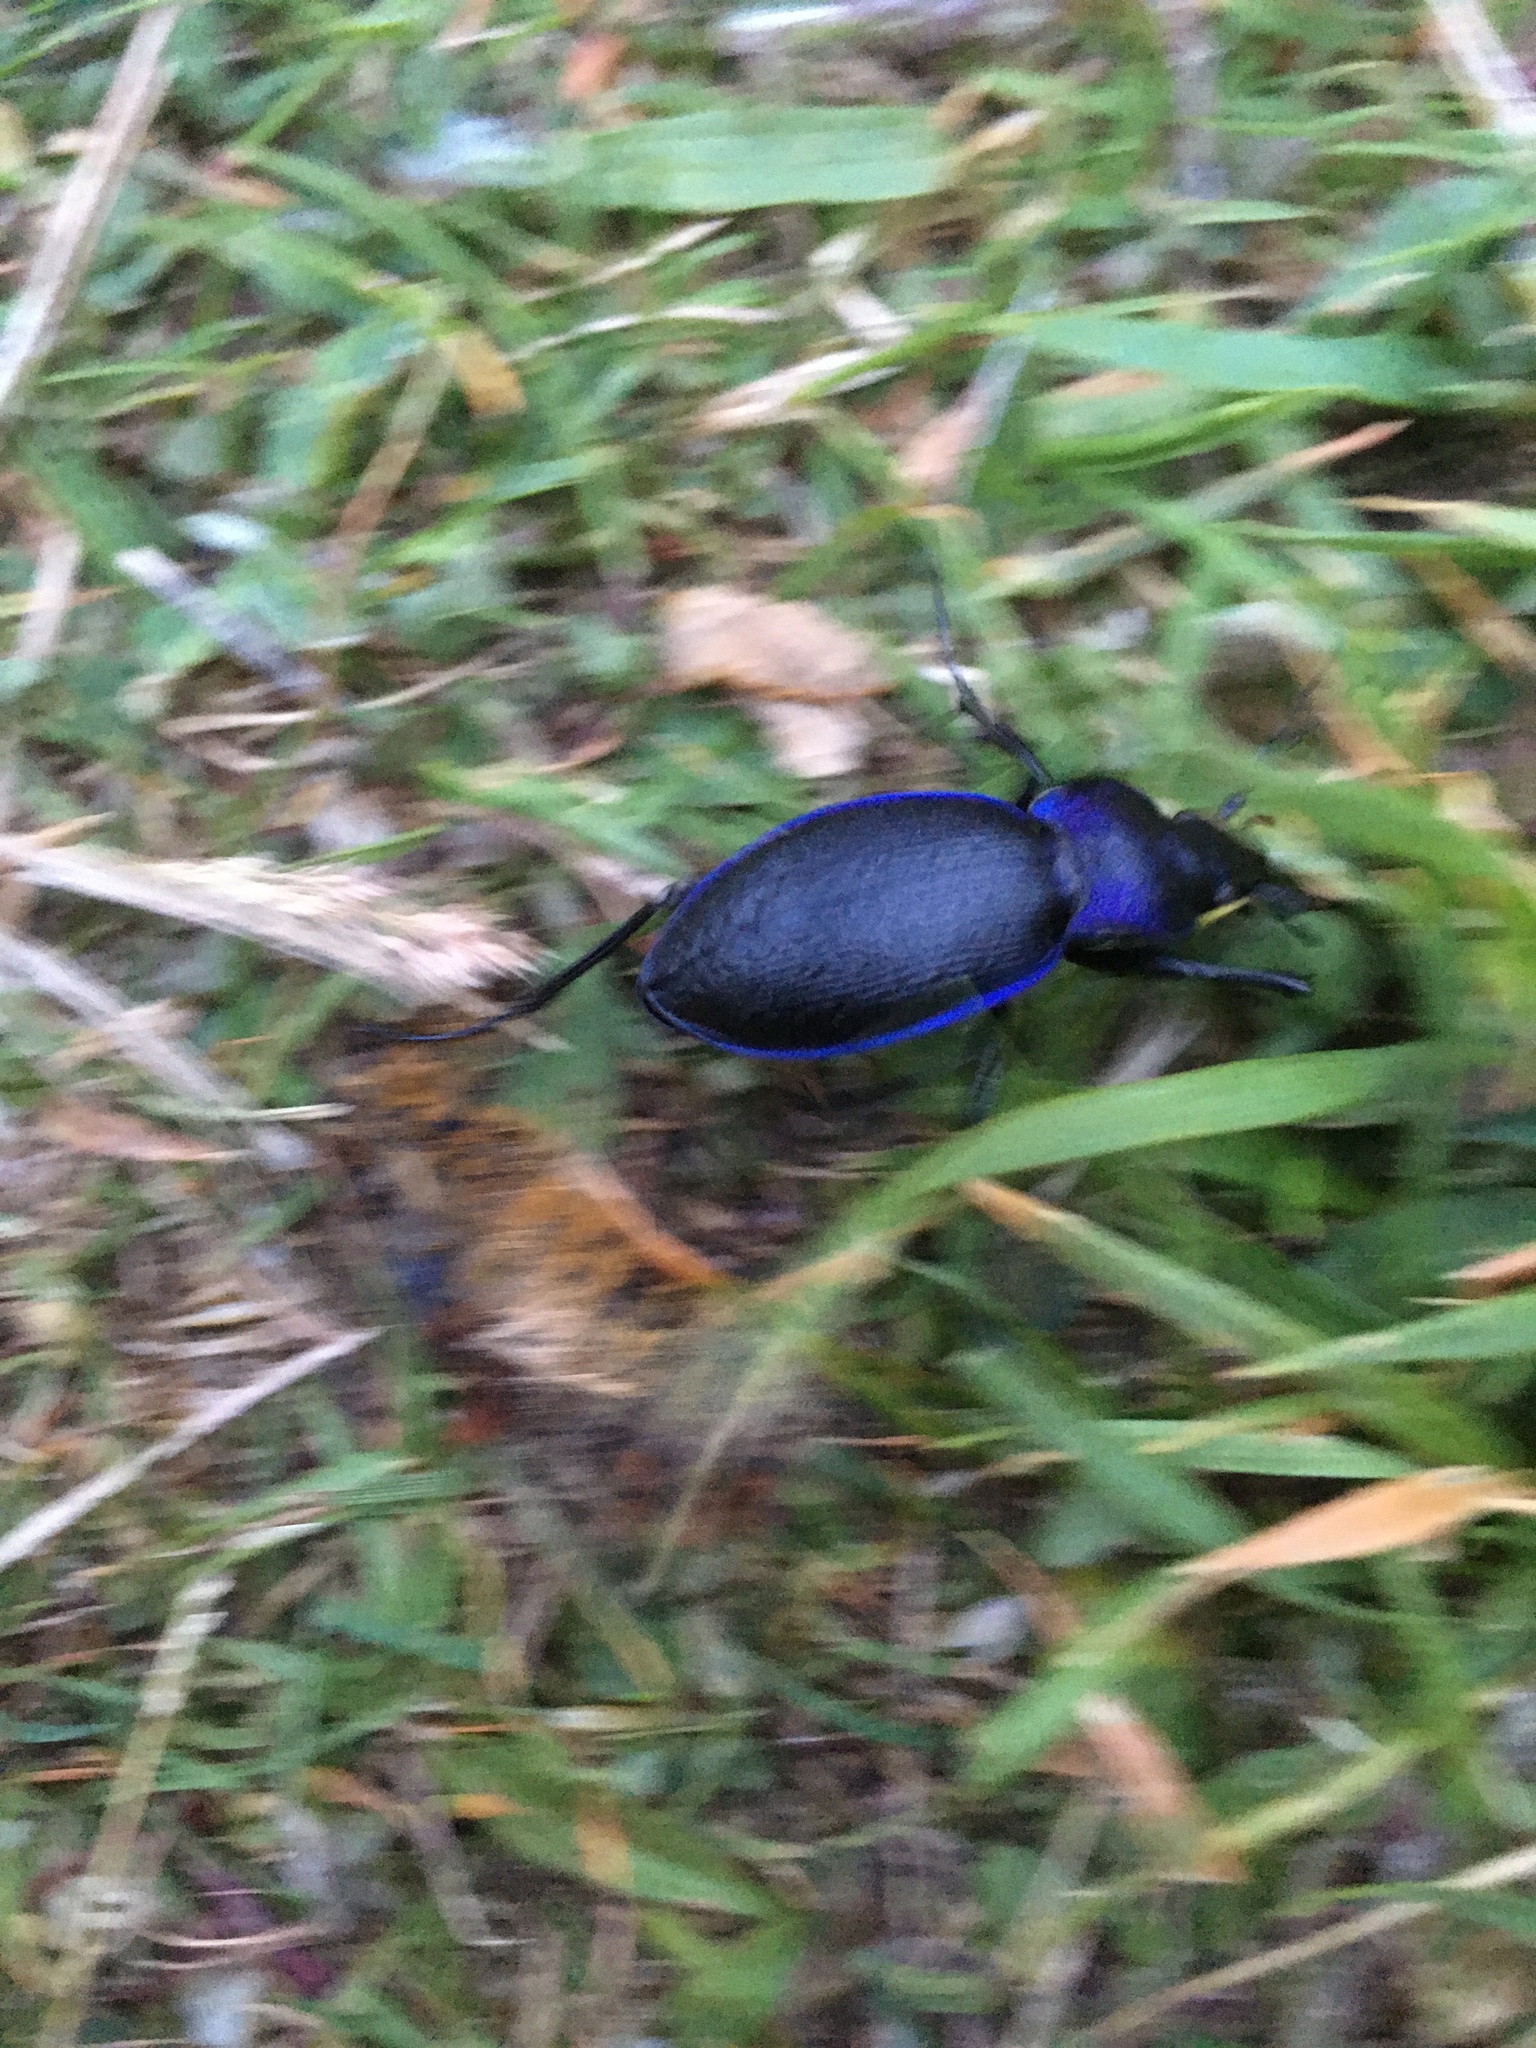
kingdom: Animalia
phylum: Arthropoda
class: Insecta
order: Coleoptera
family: Carabidae
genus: Carabus
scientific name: Carabus problematicus
